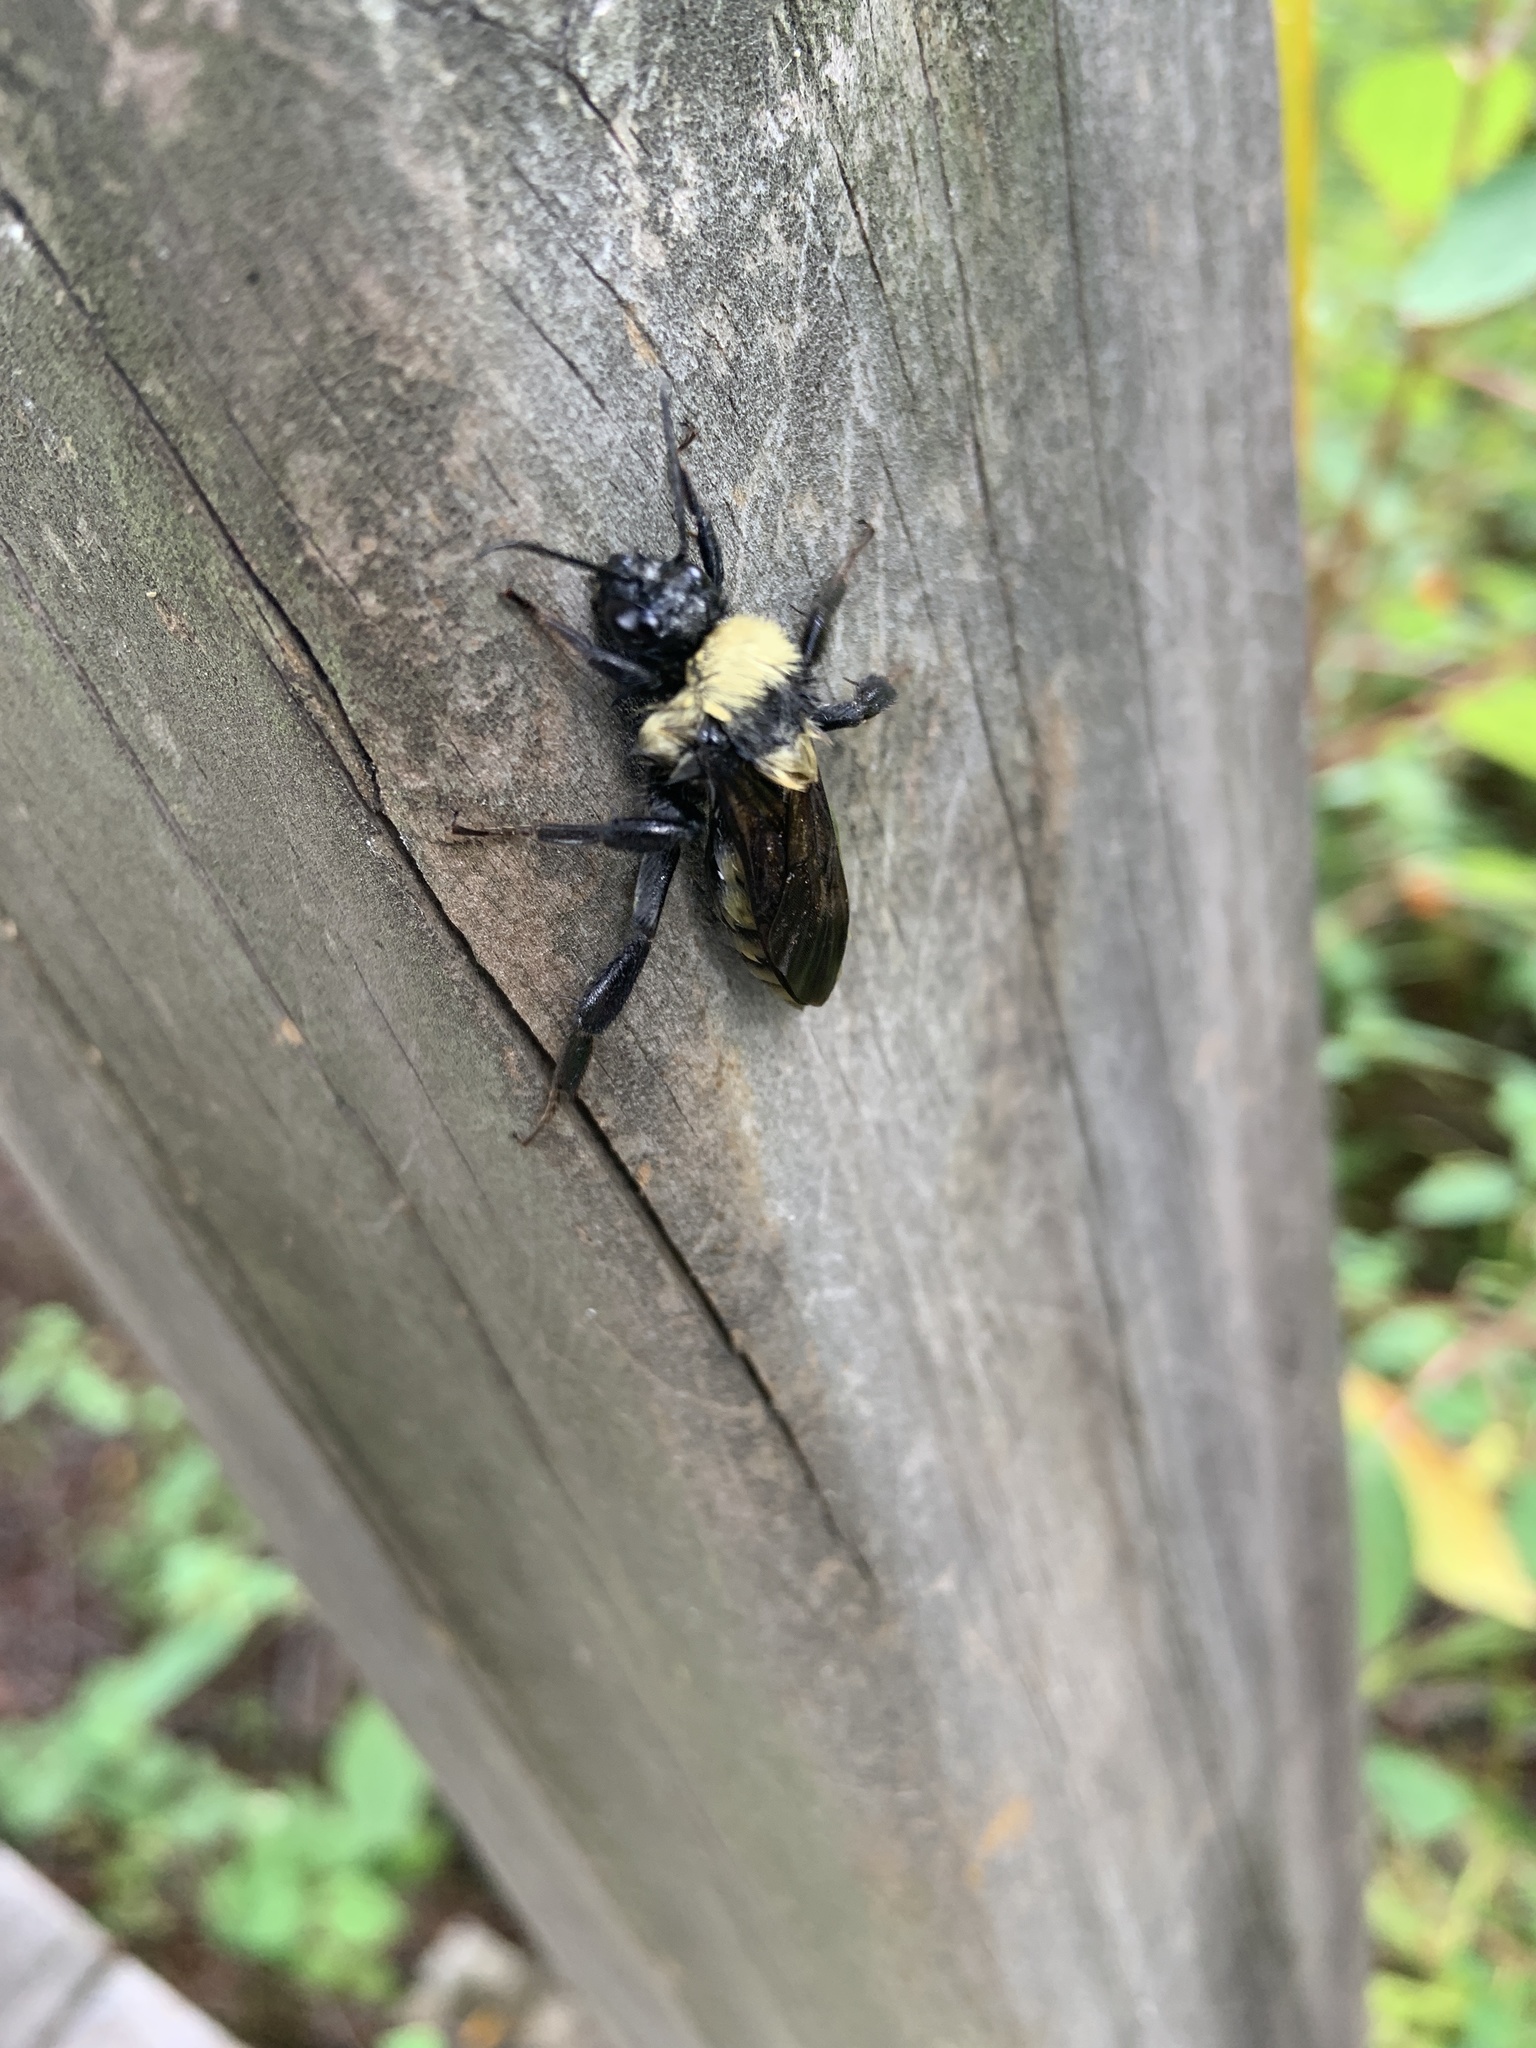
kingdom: Animalia
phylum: Arthropoda
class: Insecta
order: Hymenoptera
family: Apidae
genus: Bombus
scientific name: Bombus pensylvanicus
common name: Bumble bee
